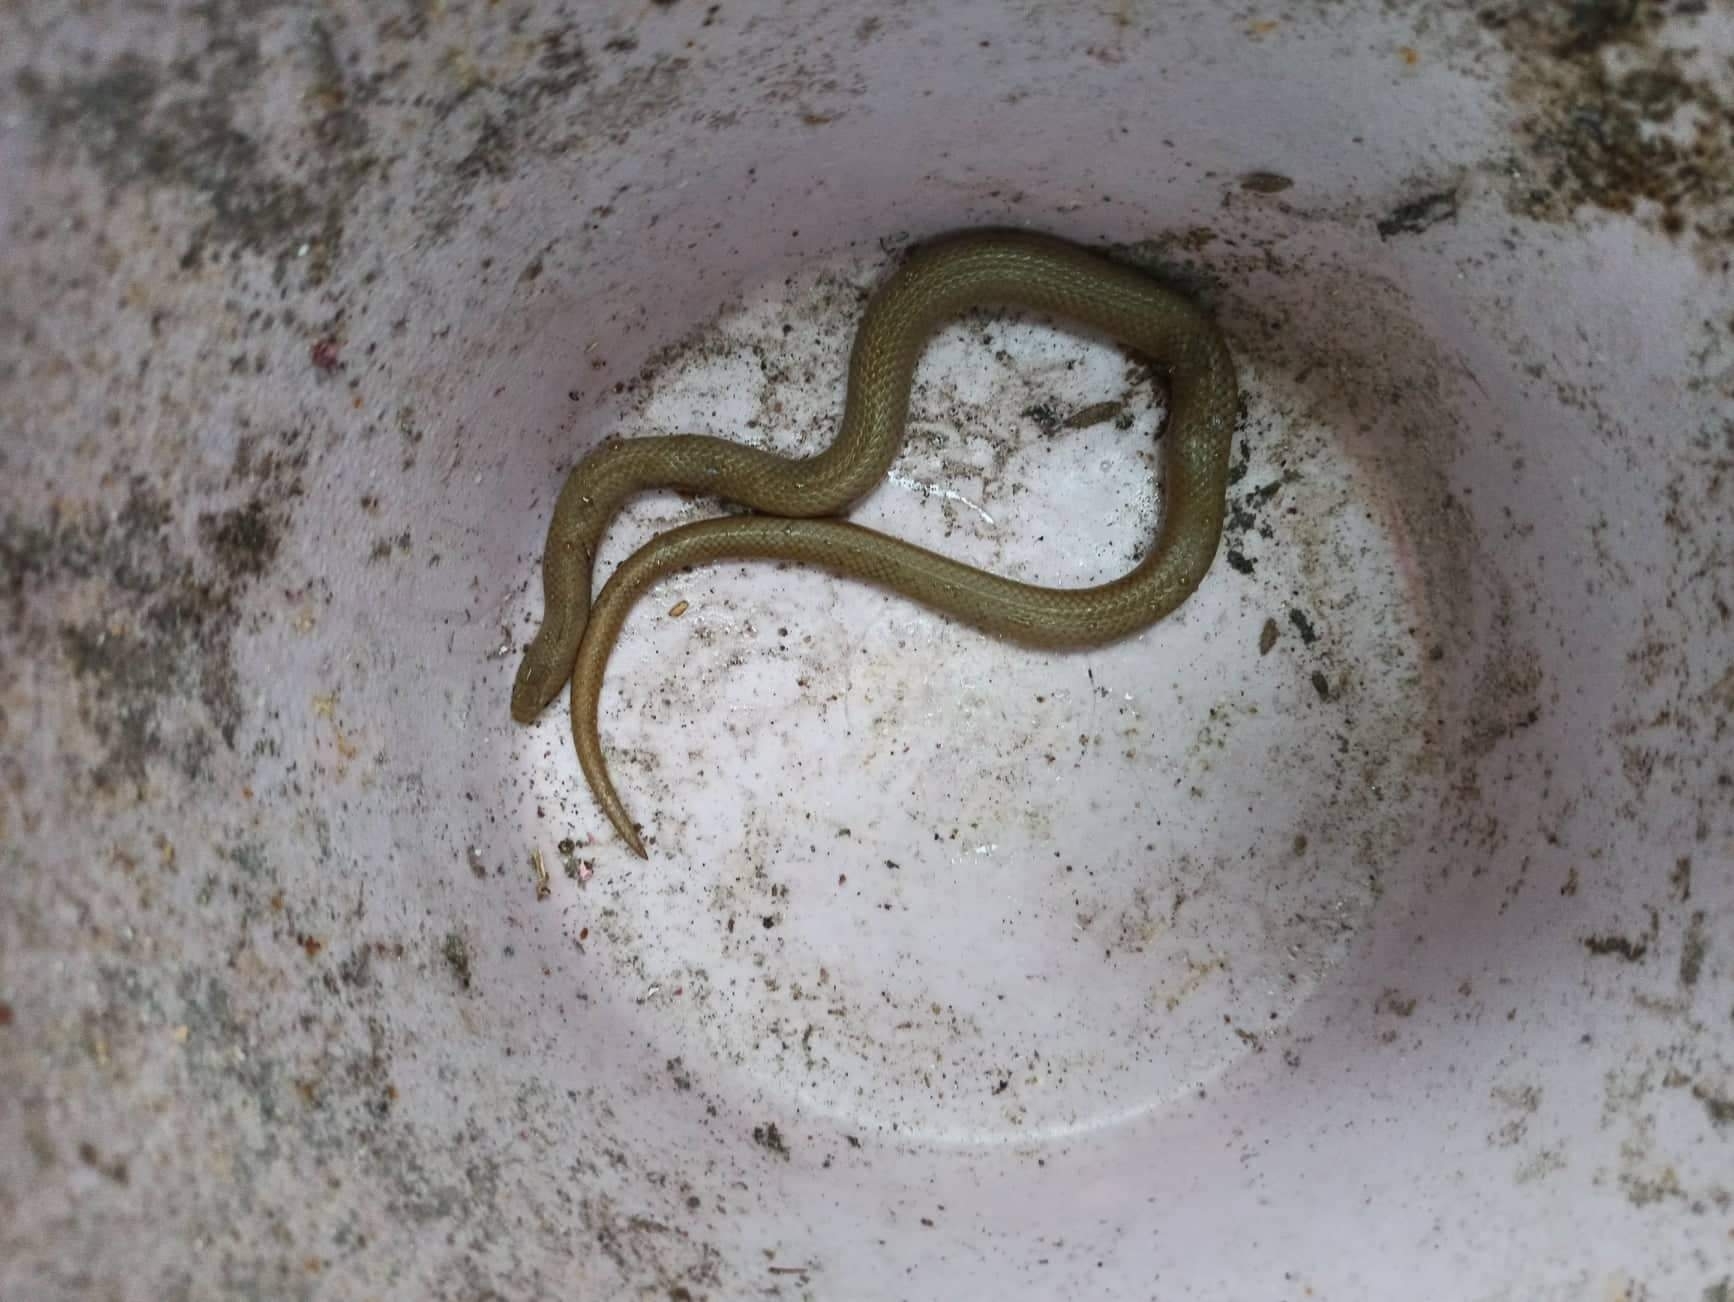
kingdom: Animalia
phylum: Chordata
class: Squamata
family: Colubridae
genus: Stenorrhina
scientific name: Stenorrhina freminvillei
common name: Blood snake
